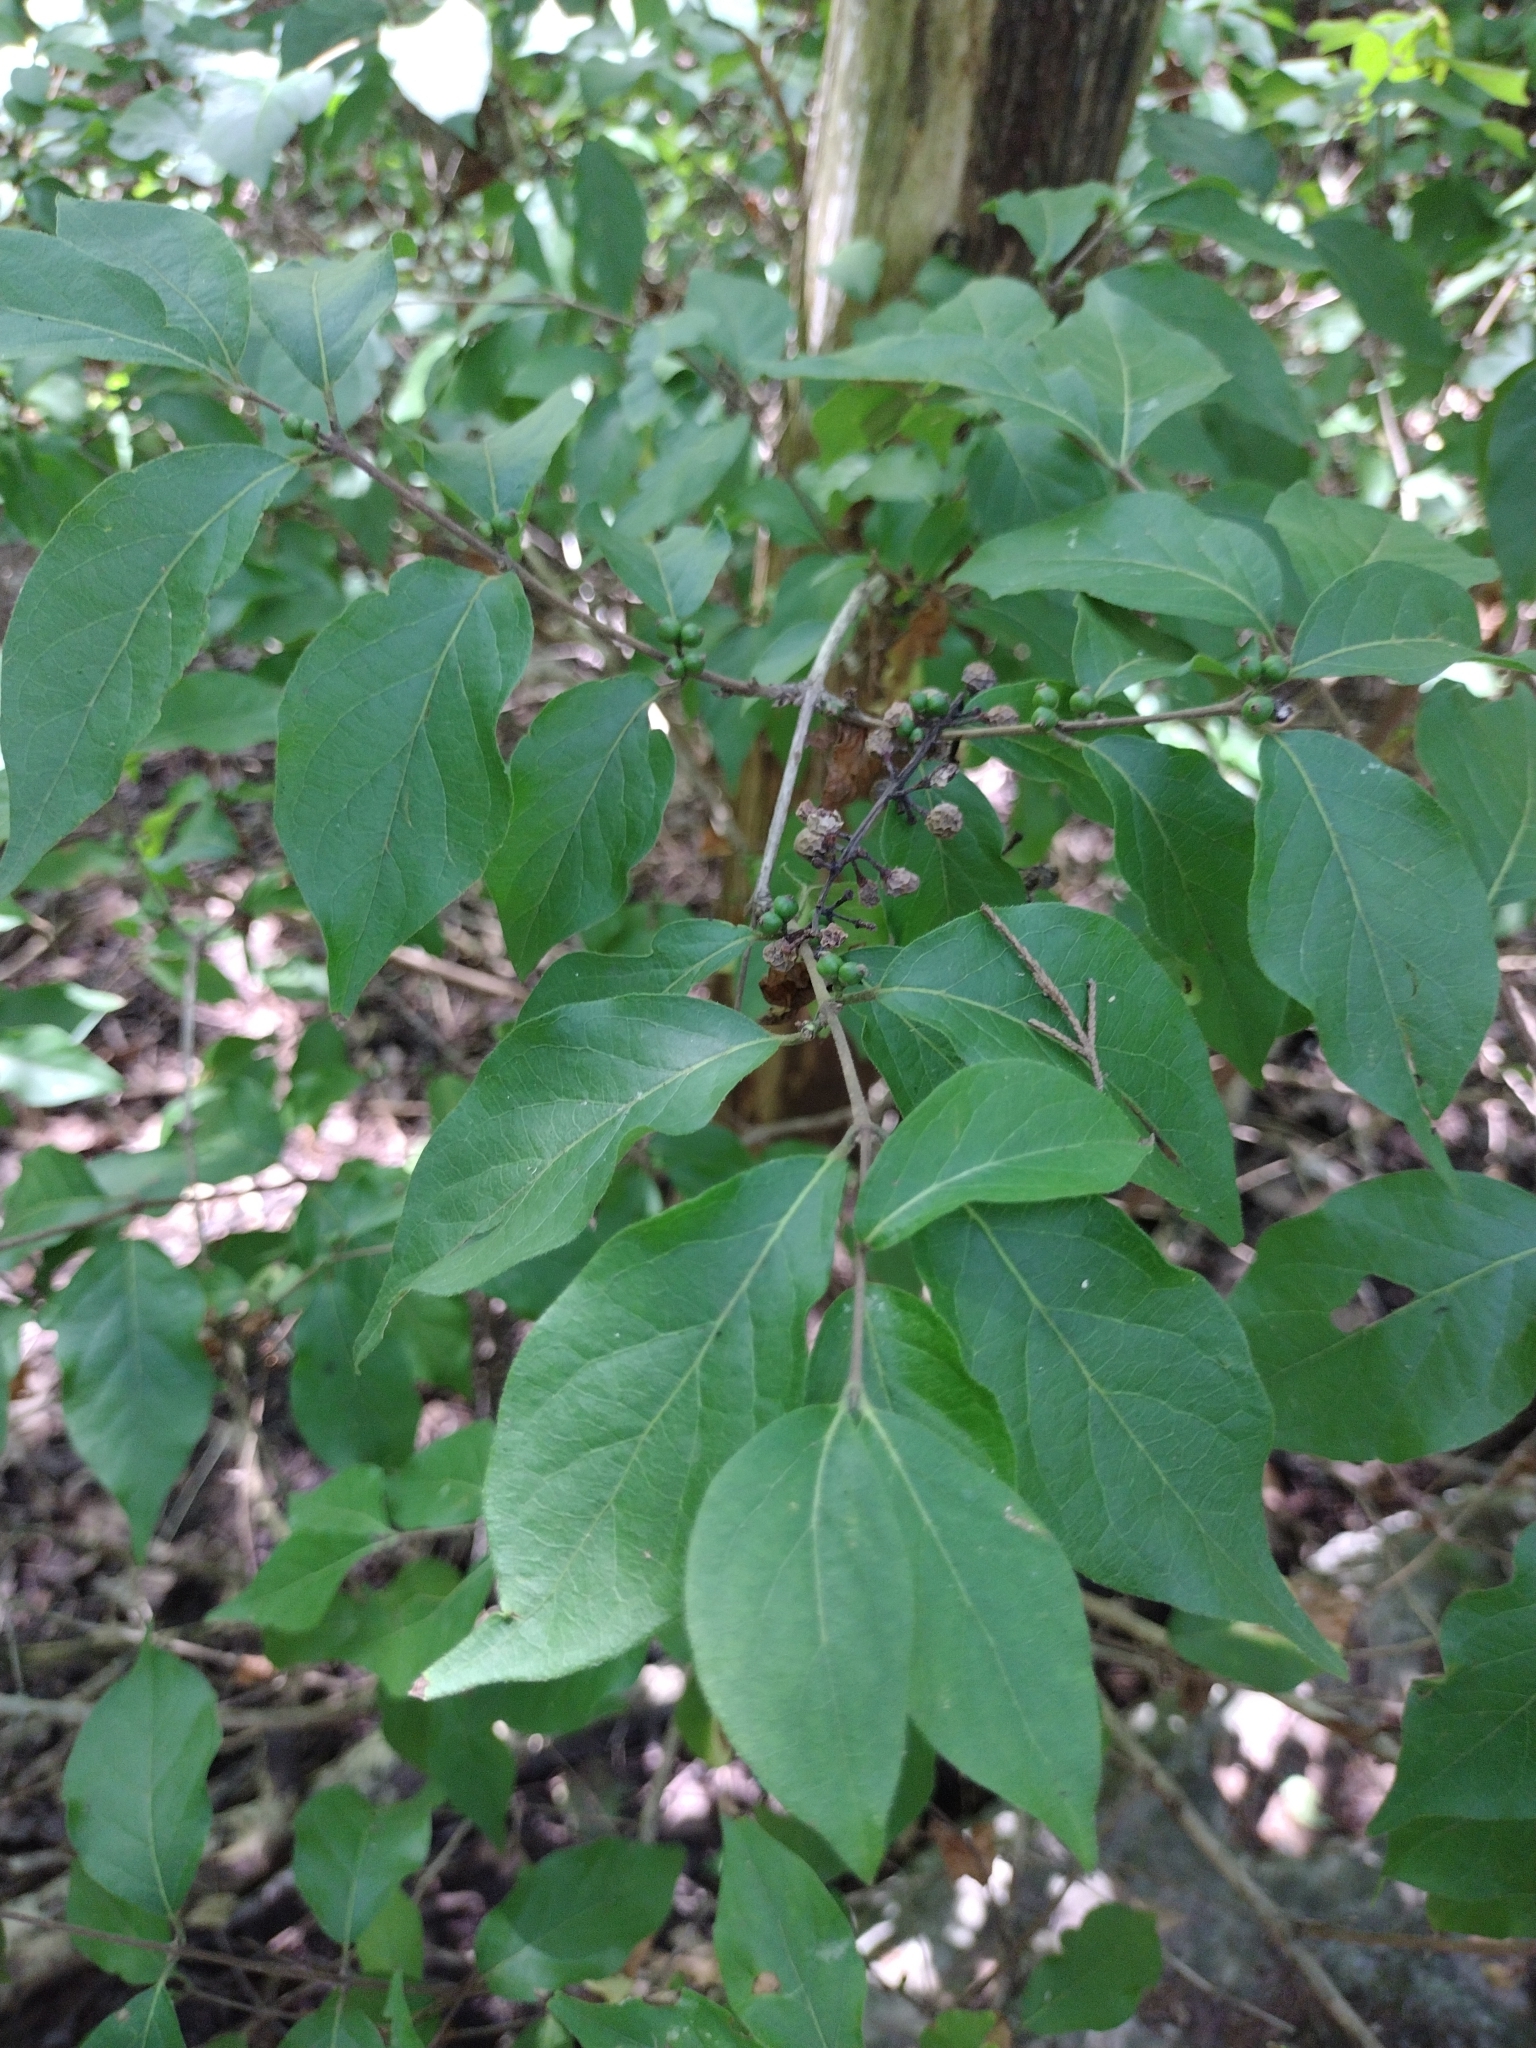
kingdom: Plantae
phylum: Tracheophyta
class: Magnoliopsida
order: Dipsacales
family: Caprifoliaceae
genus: Lonicera
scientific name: Lonicera maackii
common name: Amur honeysuckle
